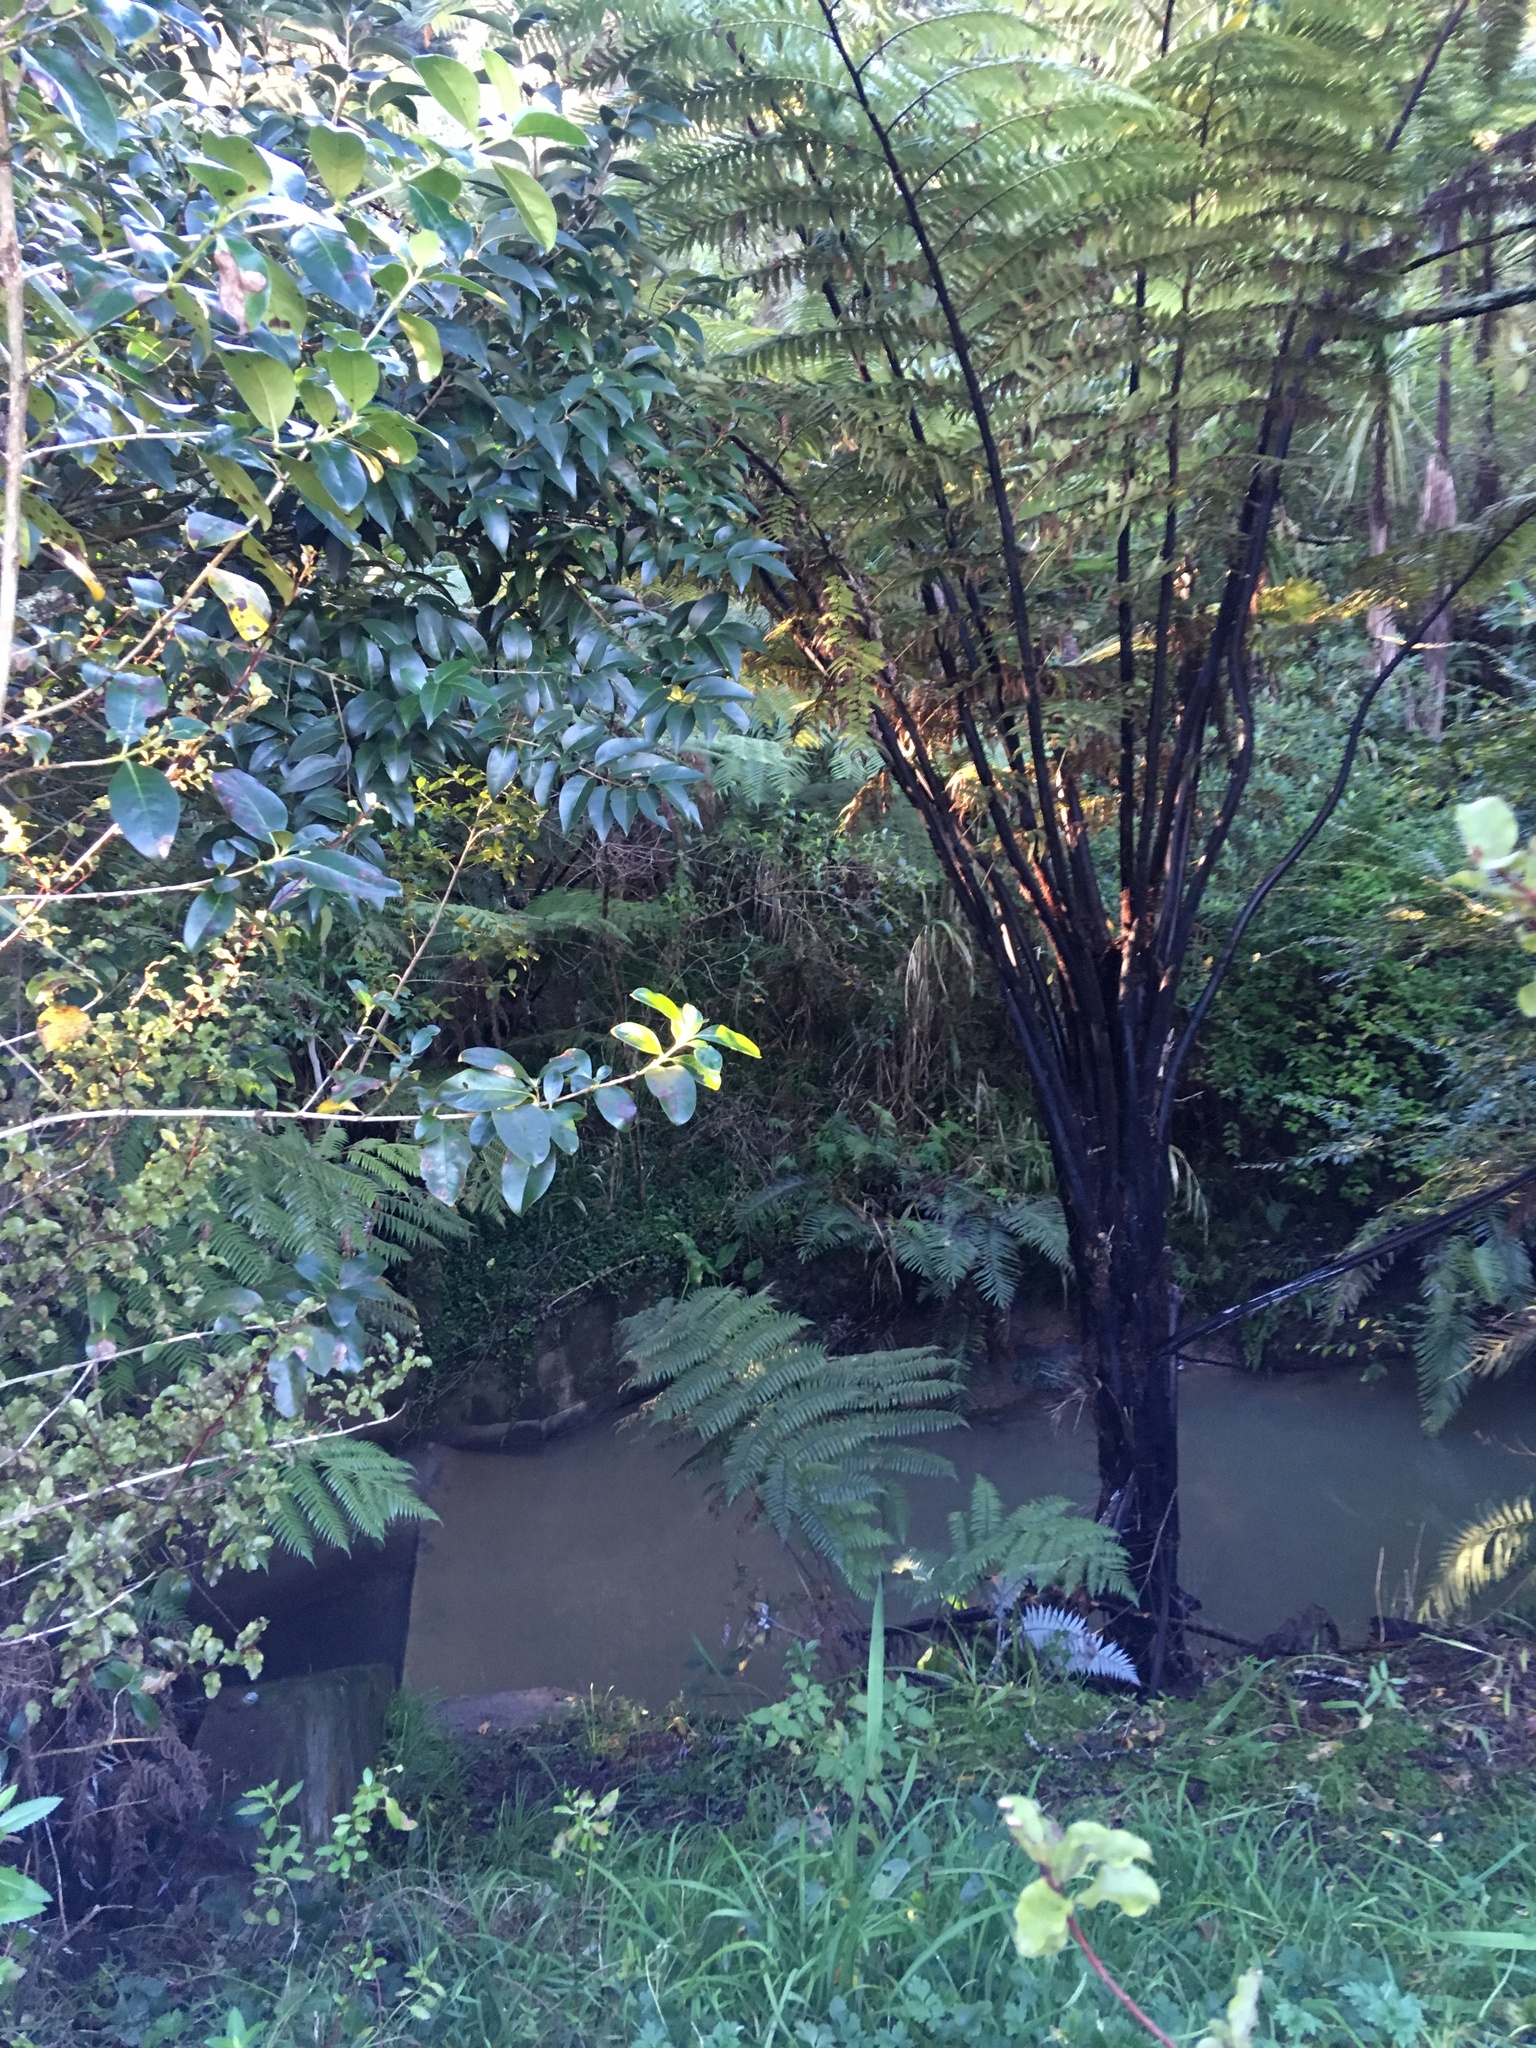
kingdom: Plantae
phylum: Tracheophyta
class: Magnoliopsida
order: Lamiales
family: Oleaceae
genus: Ligustrum
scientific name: Ligustrum lucidum
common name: Glossy privet
